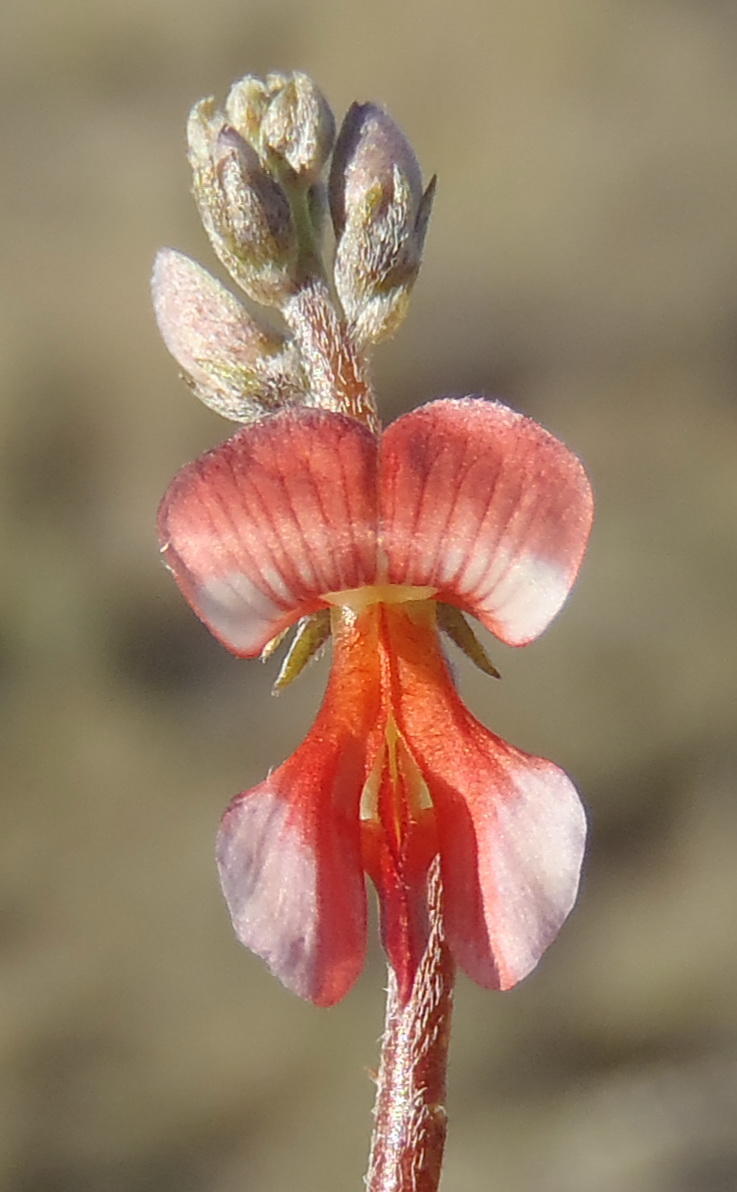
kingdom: Plantae
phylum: Tracheophyta
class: Magnoliopsida
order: Fabales
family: Fabaceae
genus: Indigofera
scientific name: Indigofera sessilifolia
